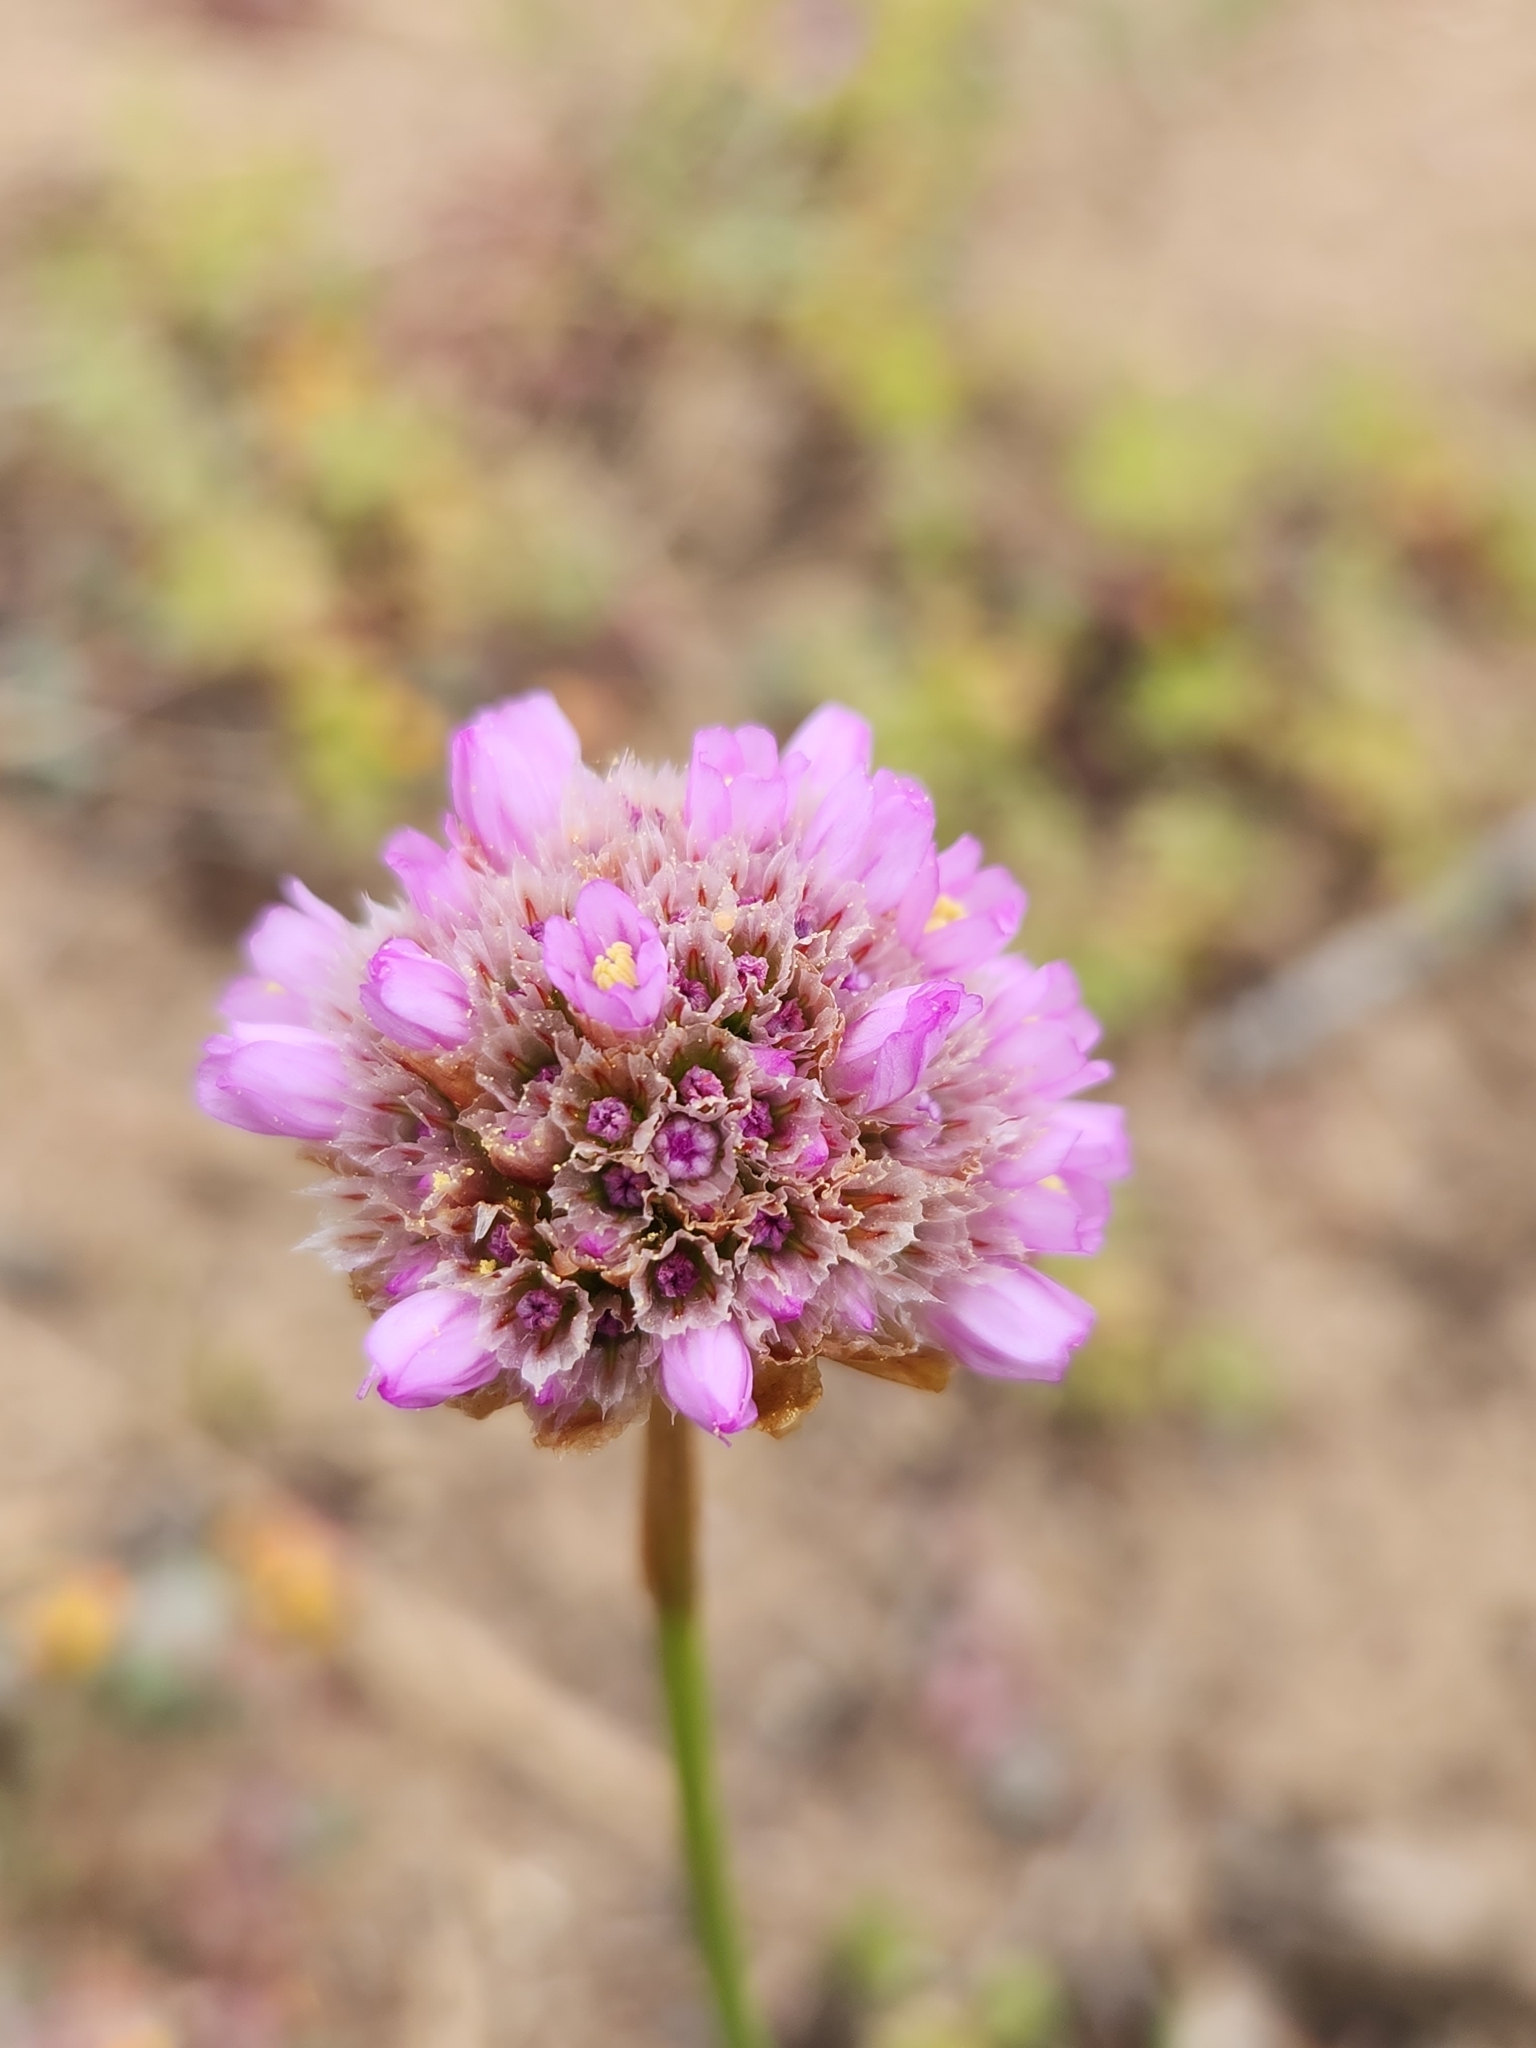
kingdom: Plantae
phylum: Tracheophyta
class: Magnoliopsida
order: Caryophyllales
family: Plumbaginaceae
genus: Armeria
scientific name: Armeria maritima
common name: Thrift
